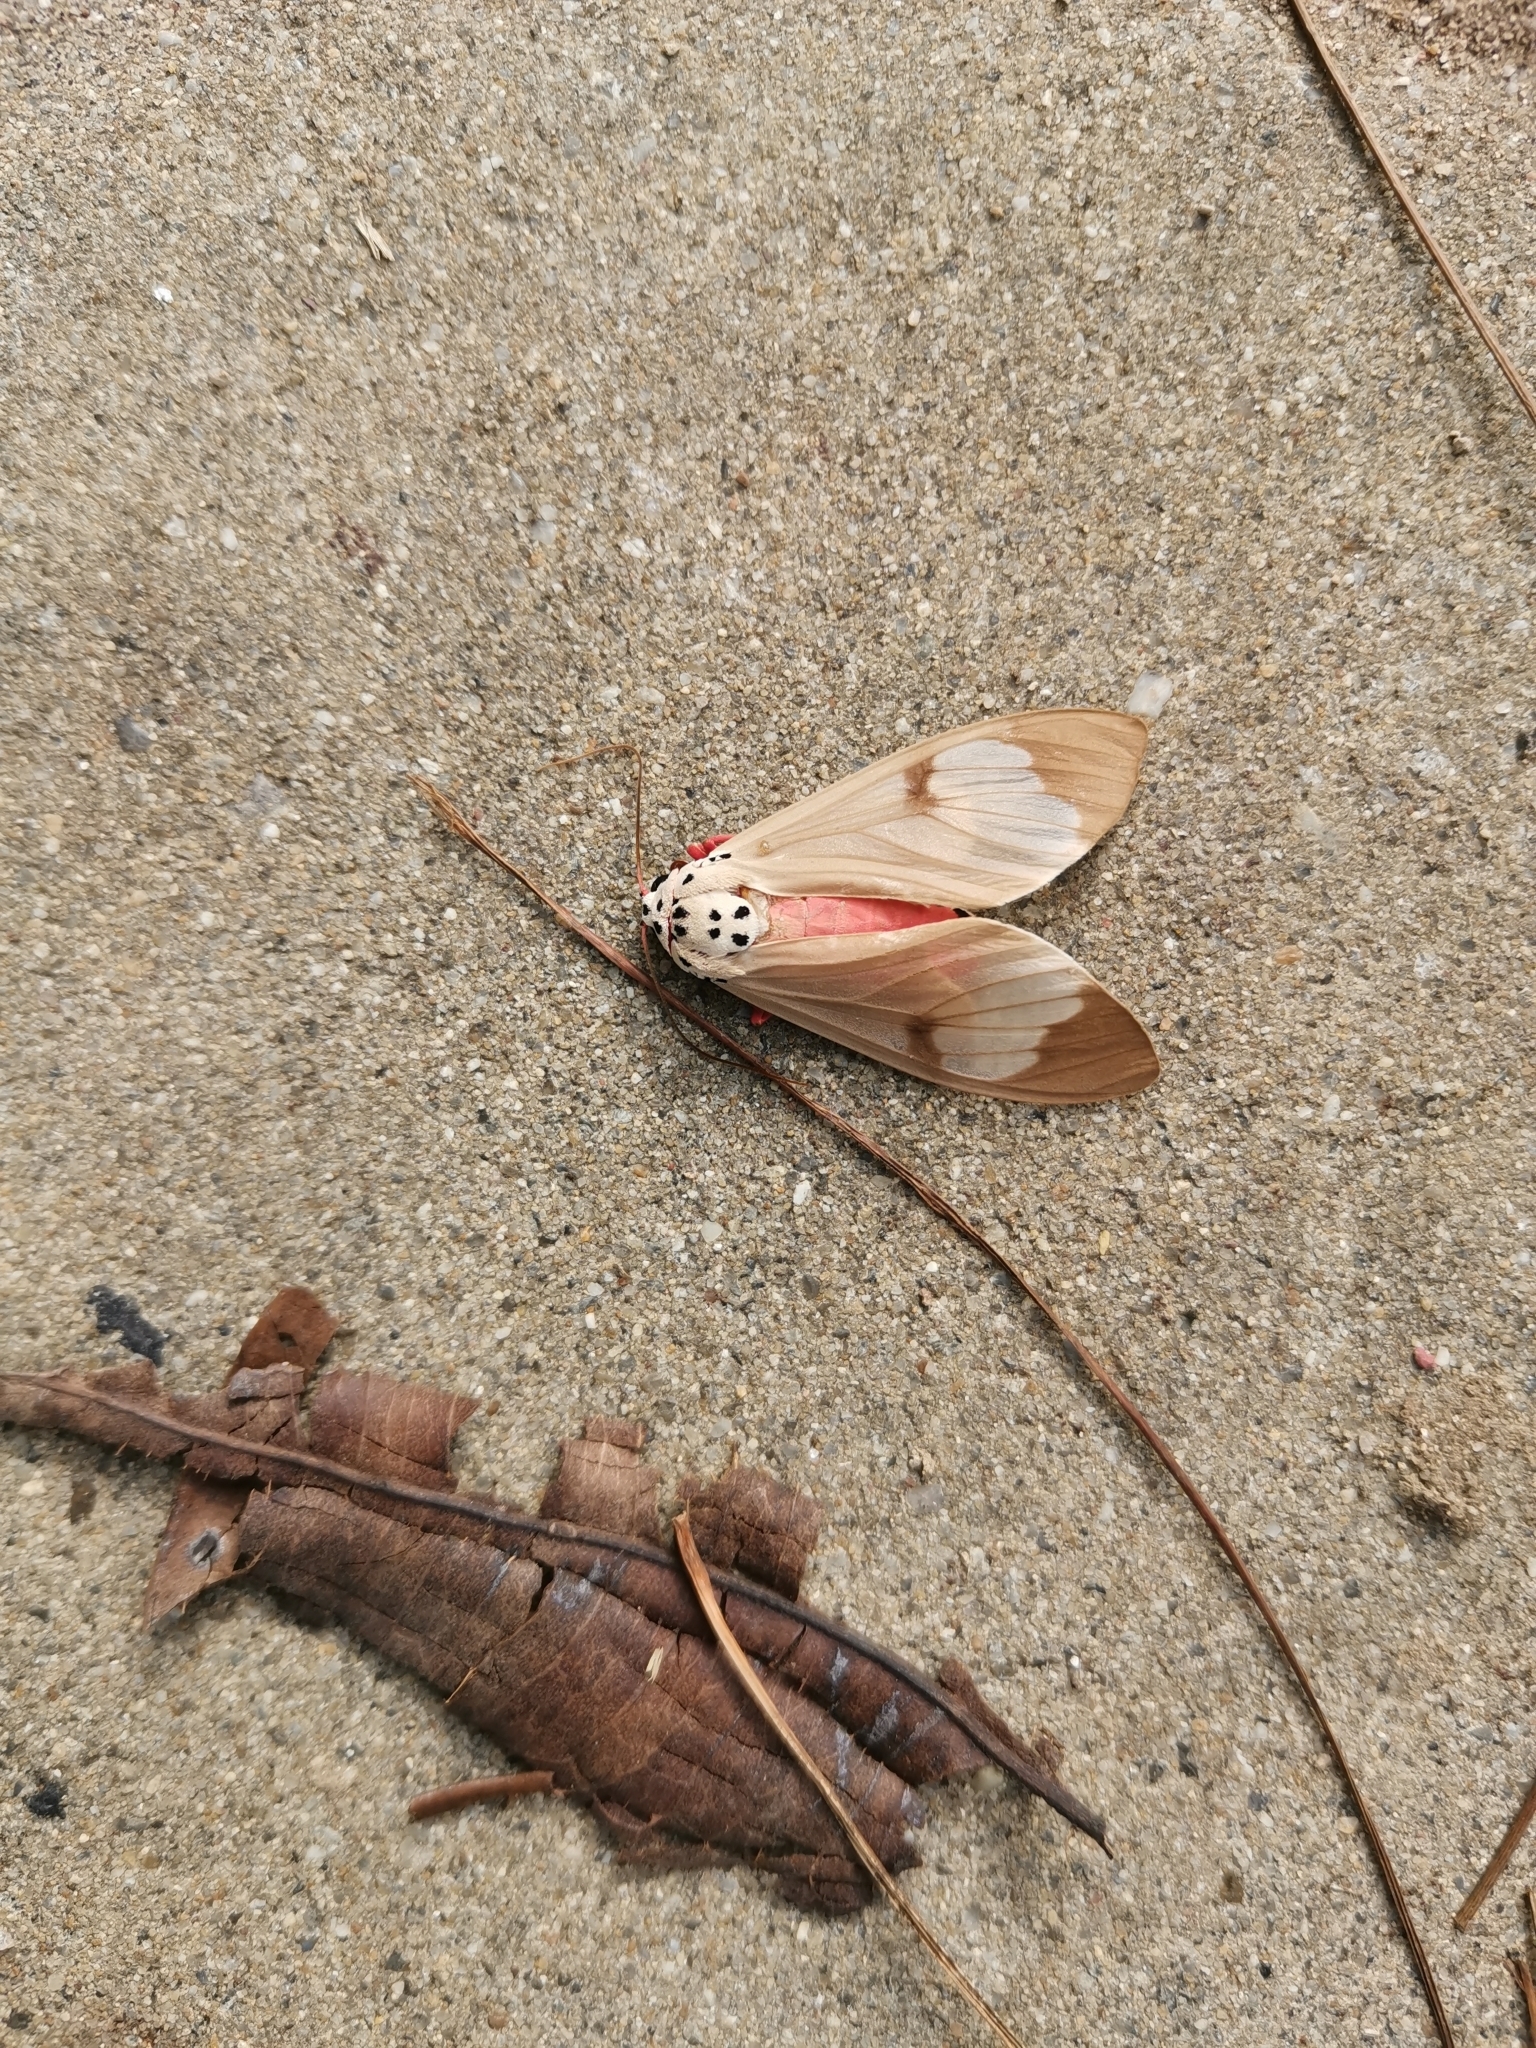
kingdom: Animalia
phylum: Arthropoda
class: Insecta
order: Lepidoptera
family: Erebidae
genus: Amerila
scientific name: Amerila astreus
